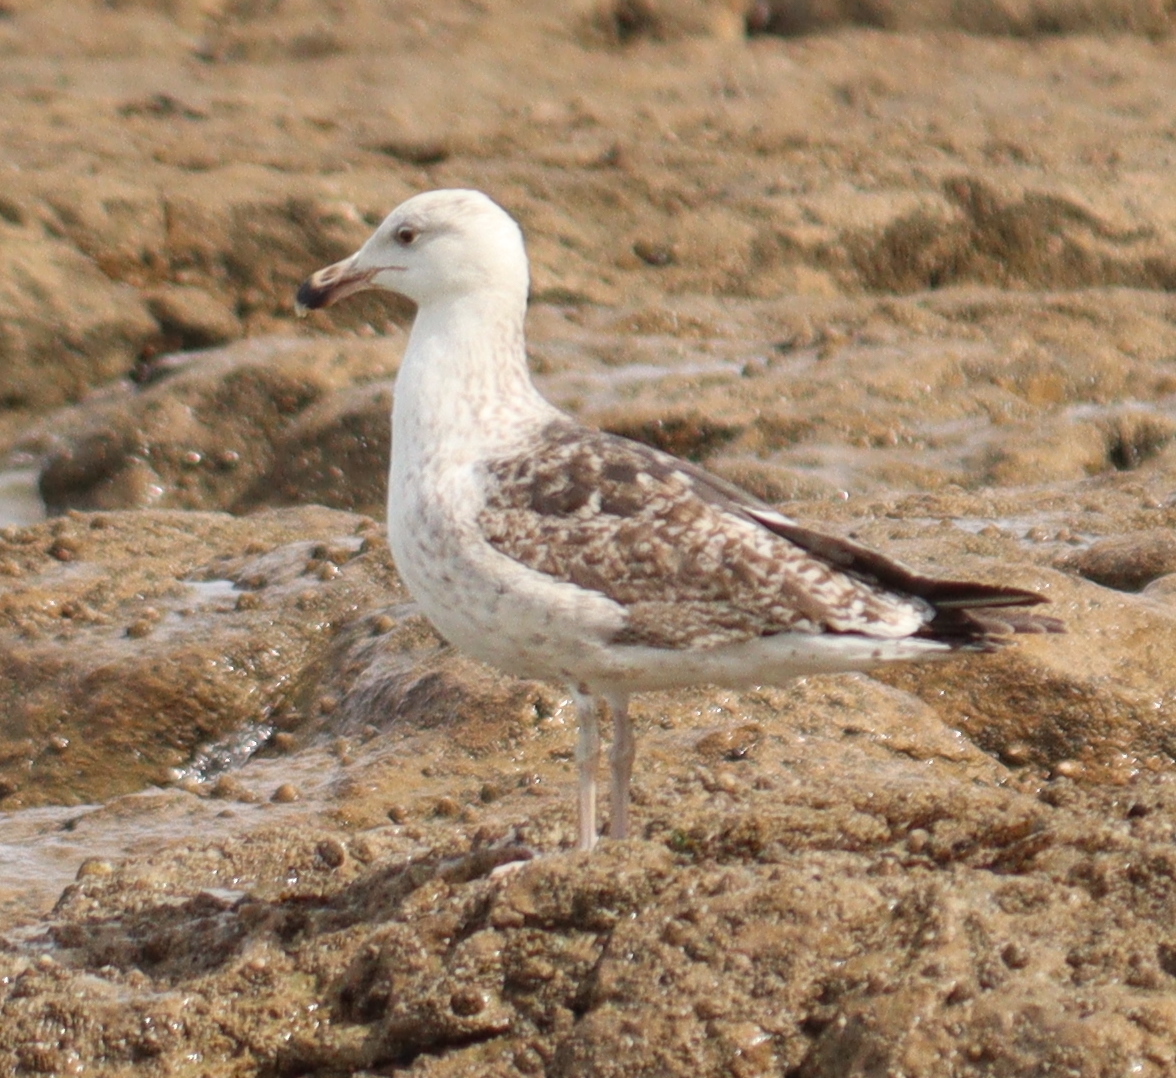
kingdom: Animalia
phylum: Chordata
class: Aves
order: Charadriiformes
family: Laridae
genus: Larus
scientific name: Larus marinus
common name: Great black-backed gull
